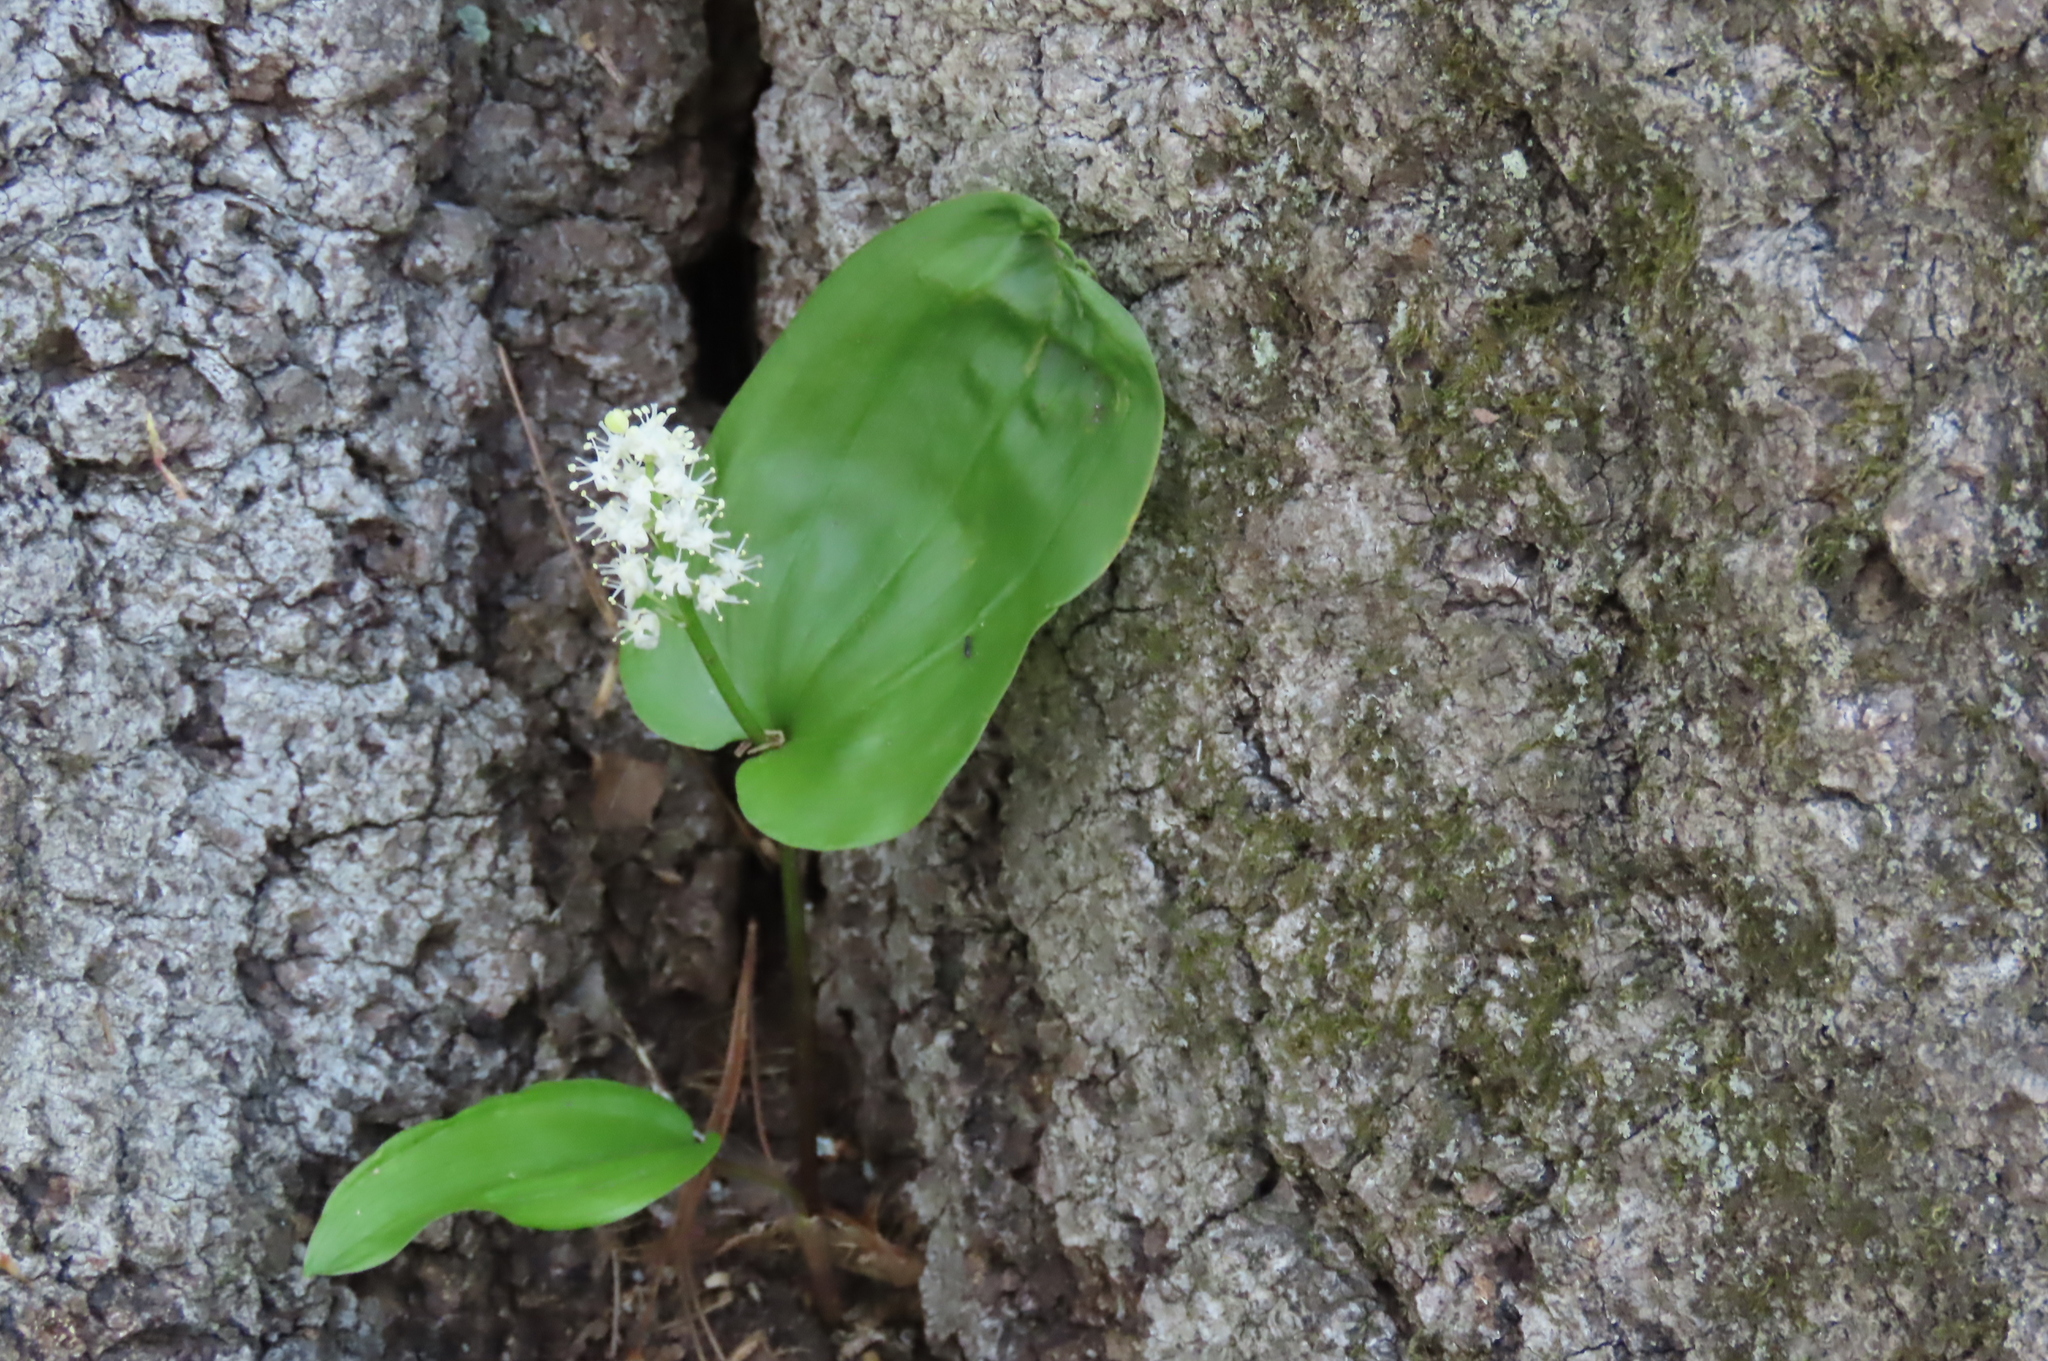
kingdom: Plantae
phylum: Tracheophyta
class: Liliopsida
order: Asparagales
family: Asparagaceae
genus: Maianthemum
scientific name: Maianthemum canadense
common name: False lily-of-the-valley
